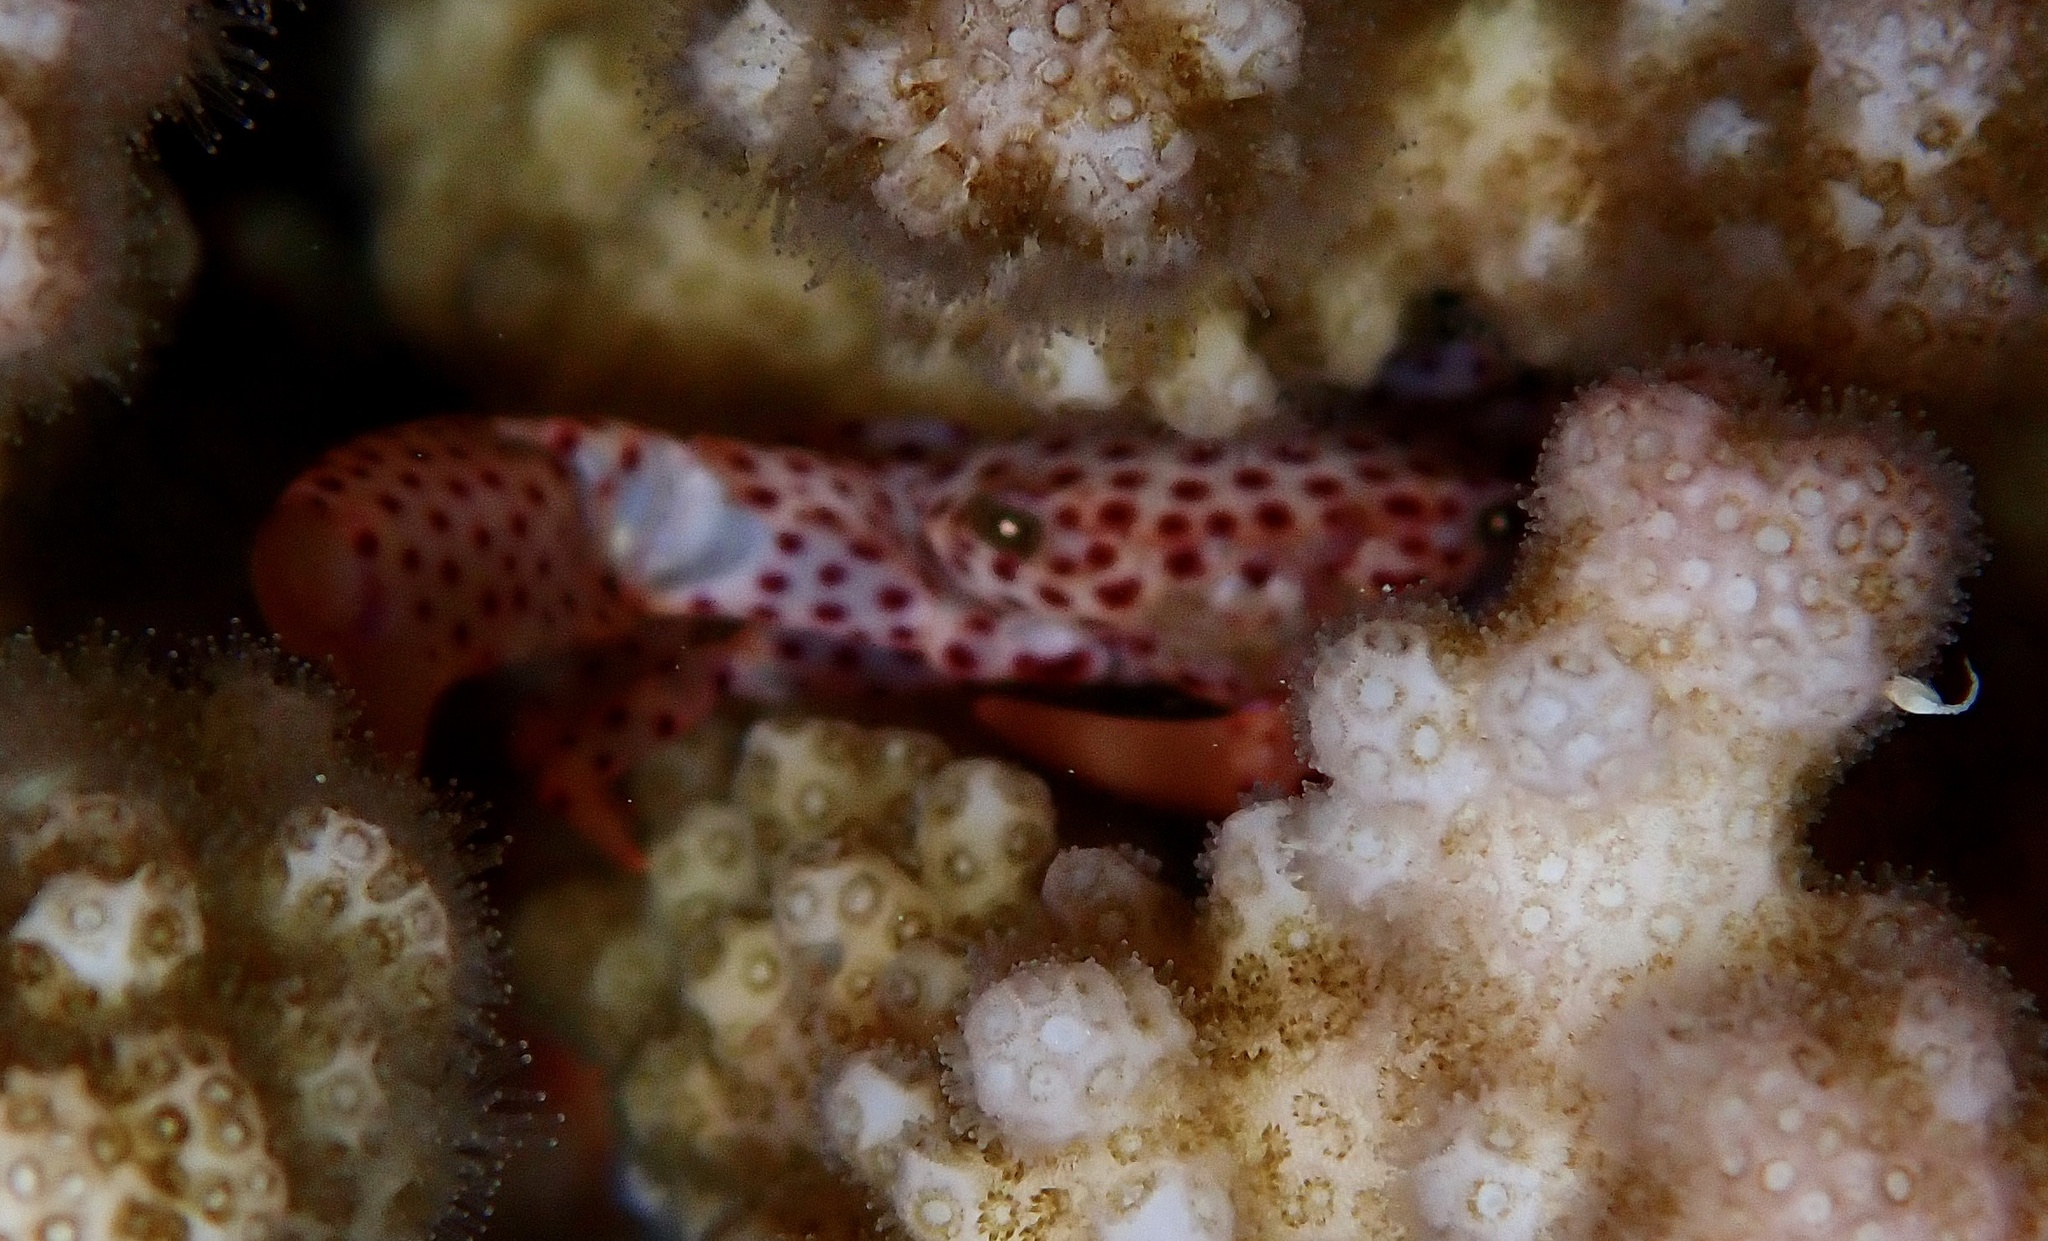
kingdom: Animalia
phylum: Arthropoda
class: Malacostraca
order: Decapoda
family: Trapeziidae
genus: Trapezia
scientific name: Trapezia tigrina
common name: Red-spotted guard crab
